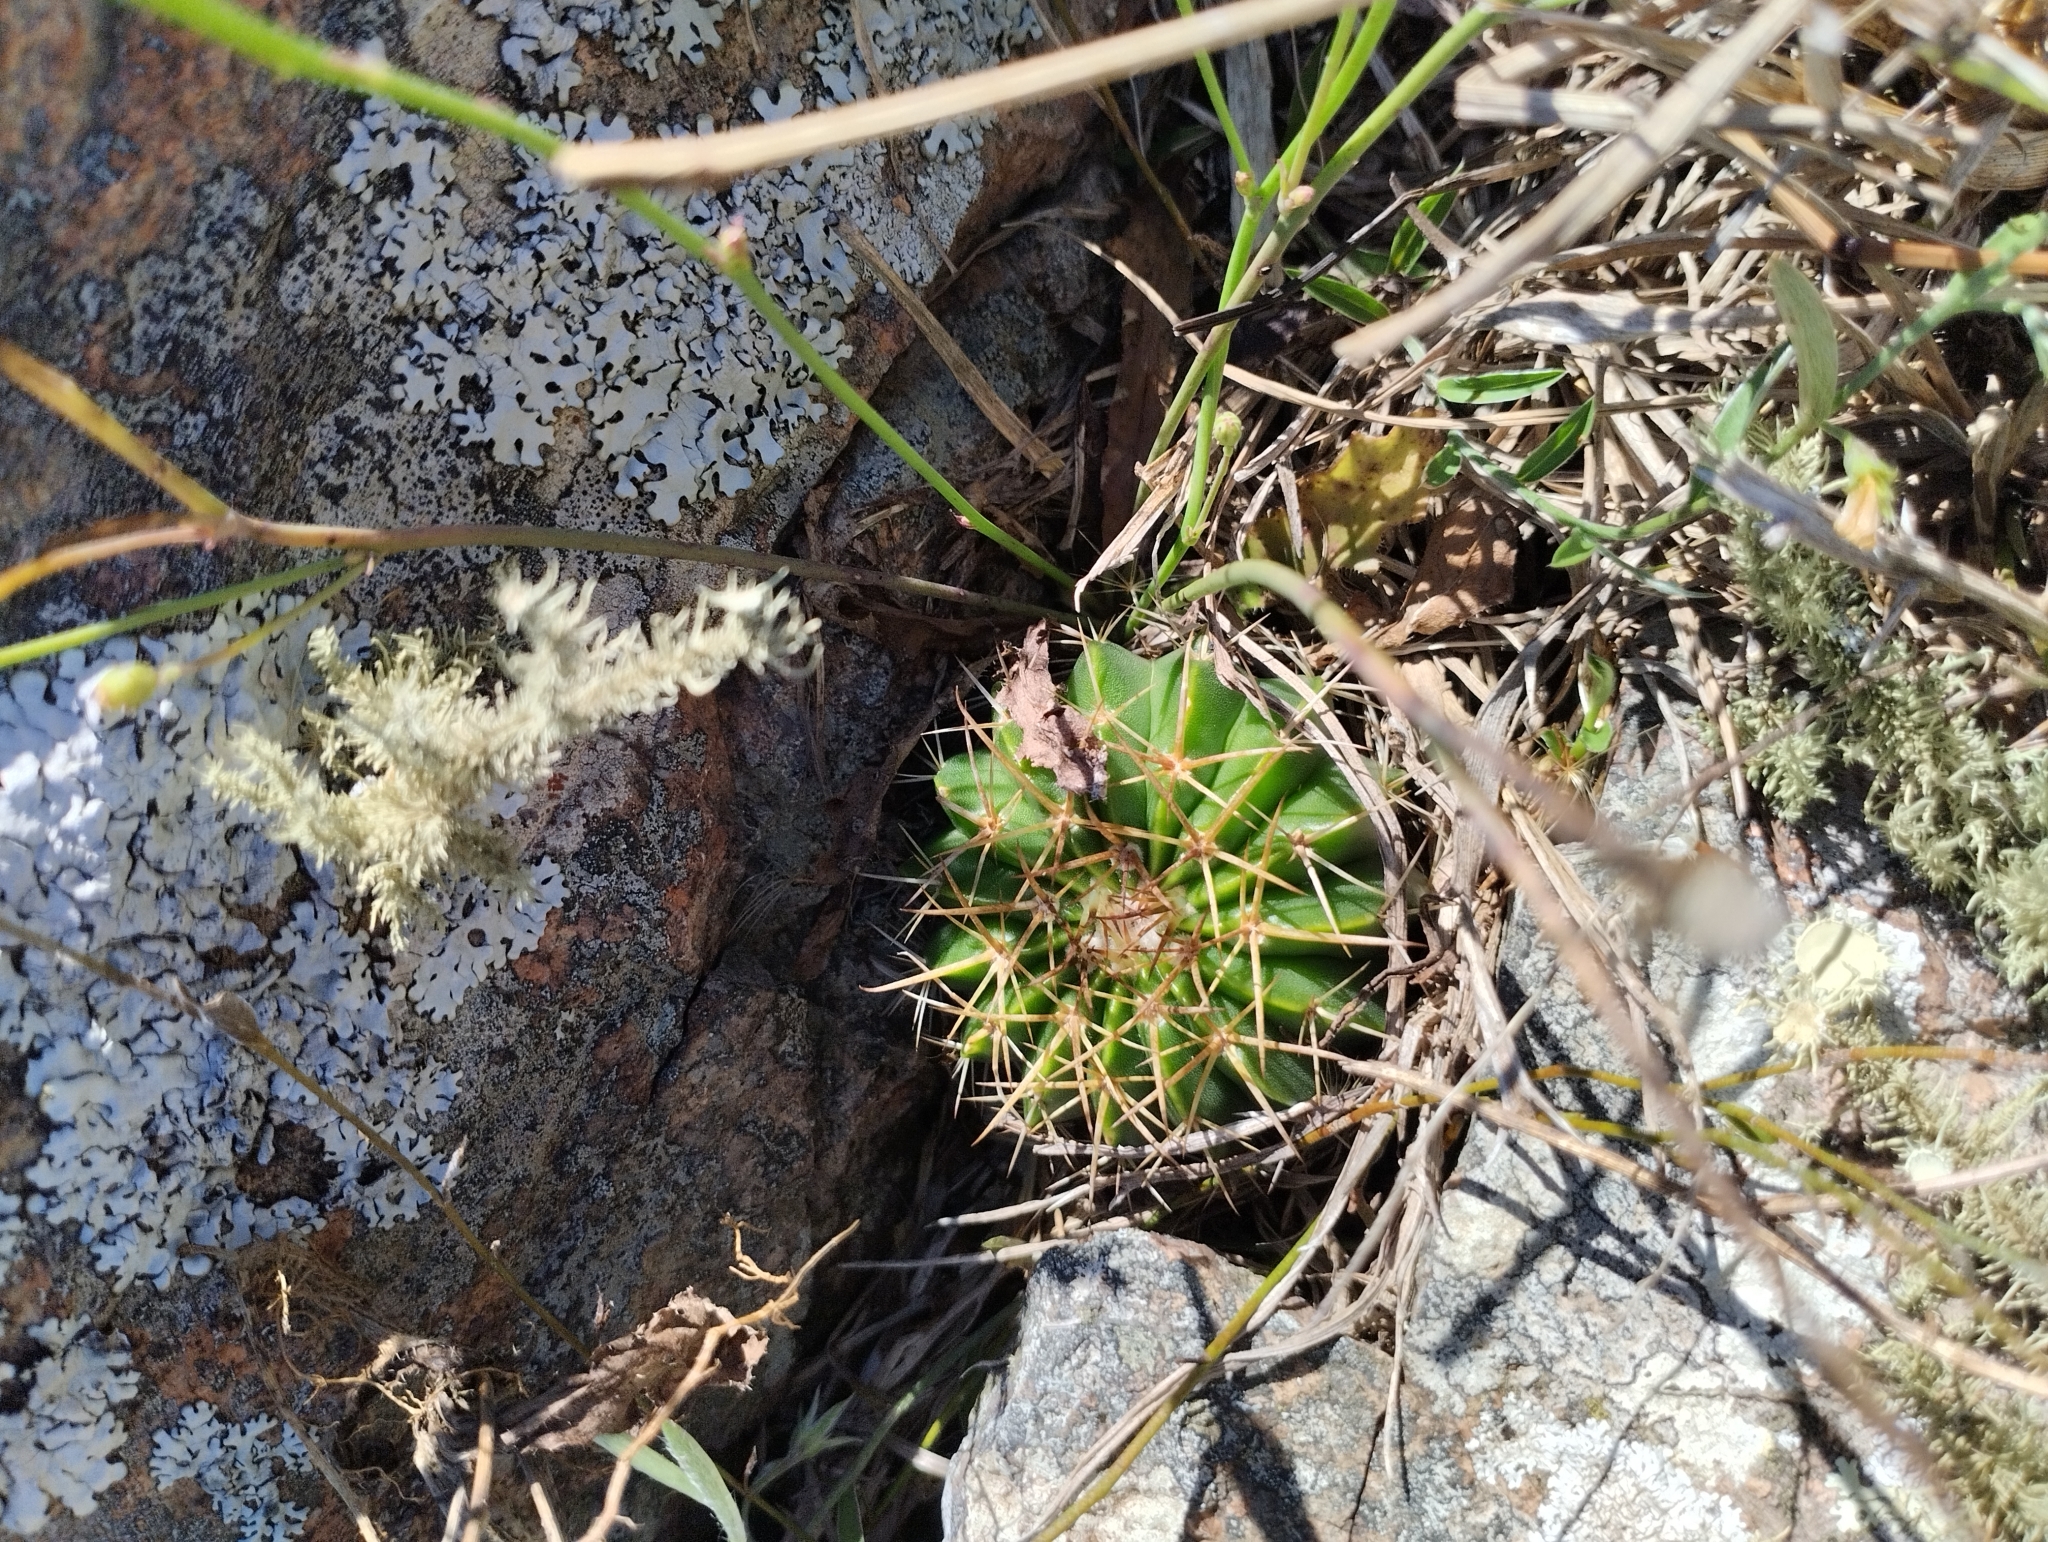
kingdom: Plantae
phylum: Tracheophyta
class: Magnoliopsida
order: Caryophyllales
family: Cactaceae
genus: Parodia
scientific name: Parodia erinacea
